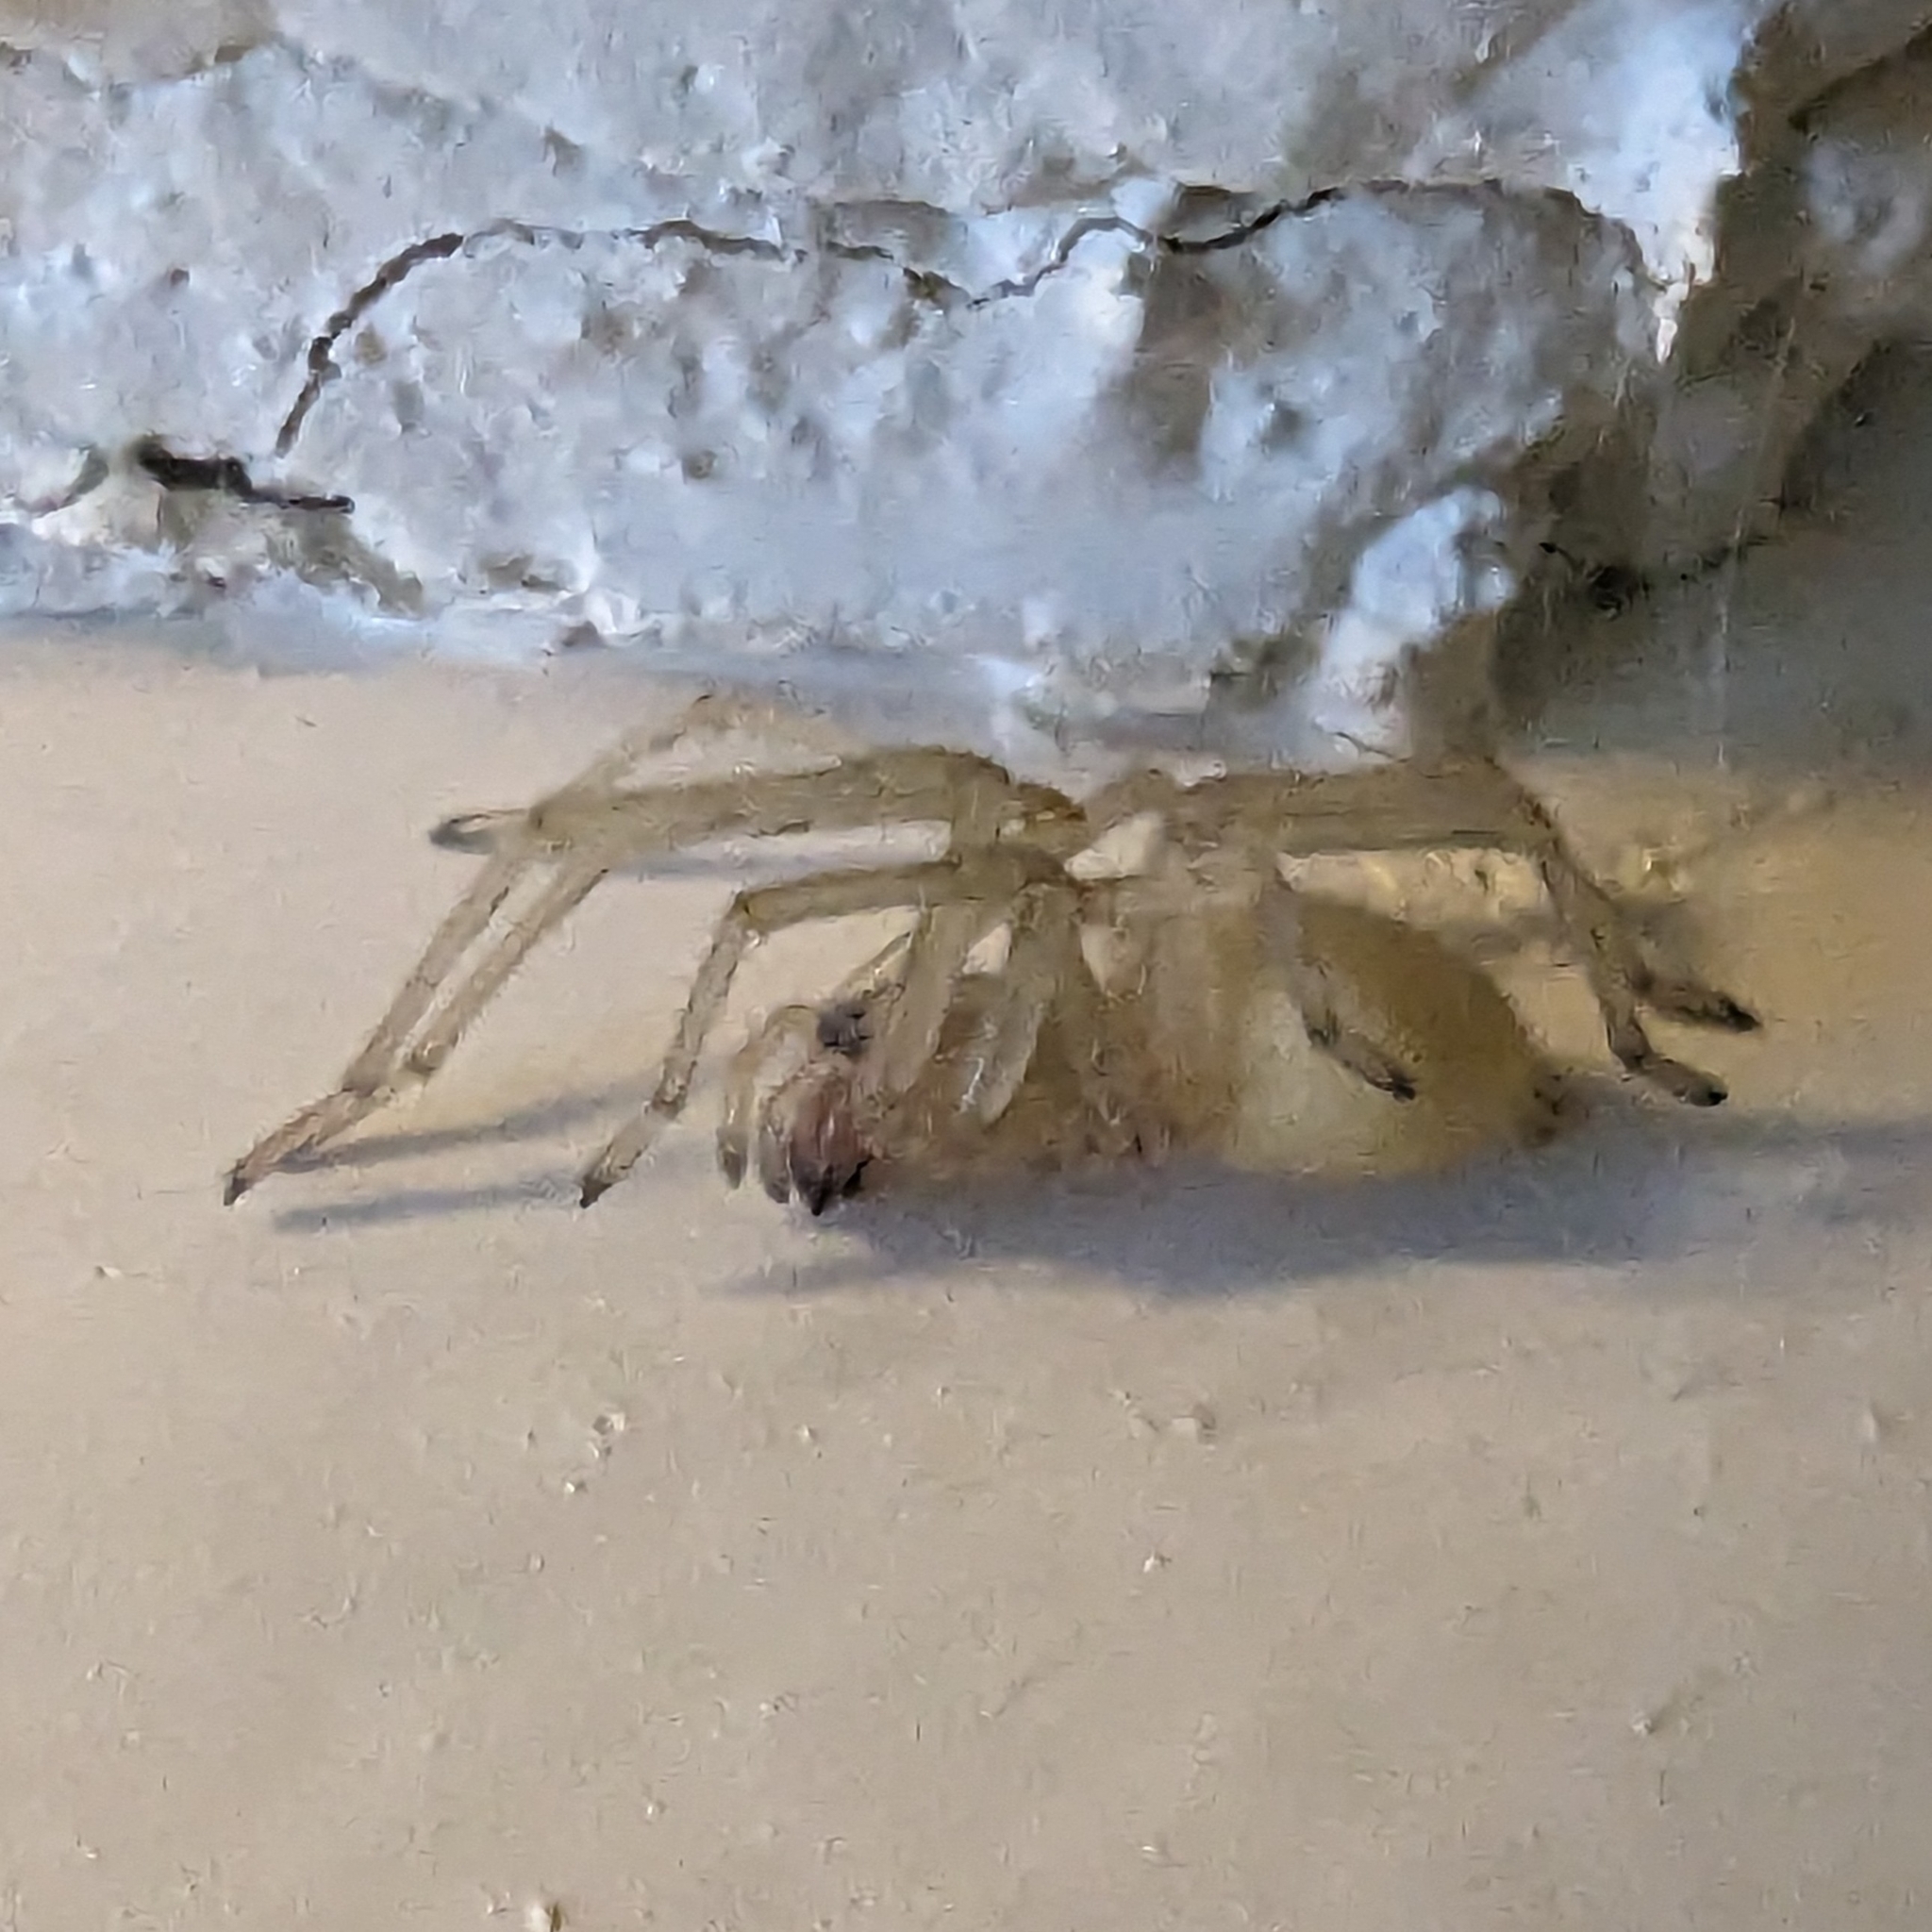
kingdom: Animalia
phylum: Arthropoda
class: Arachnida
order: Araneae
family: Cheiracanthiidae
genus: Cheiracanthium
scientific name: Cheiracanthium mildei
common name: Northern yellow sac spider
